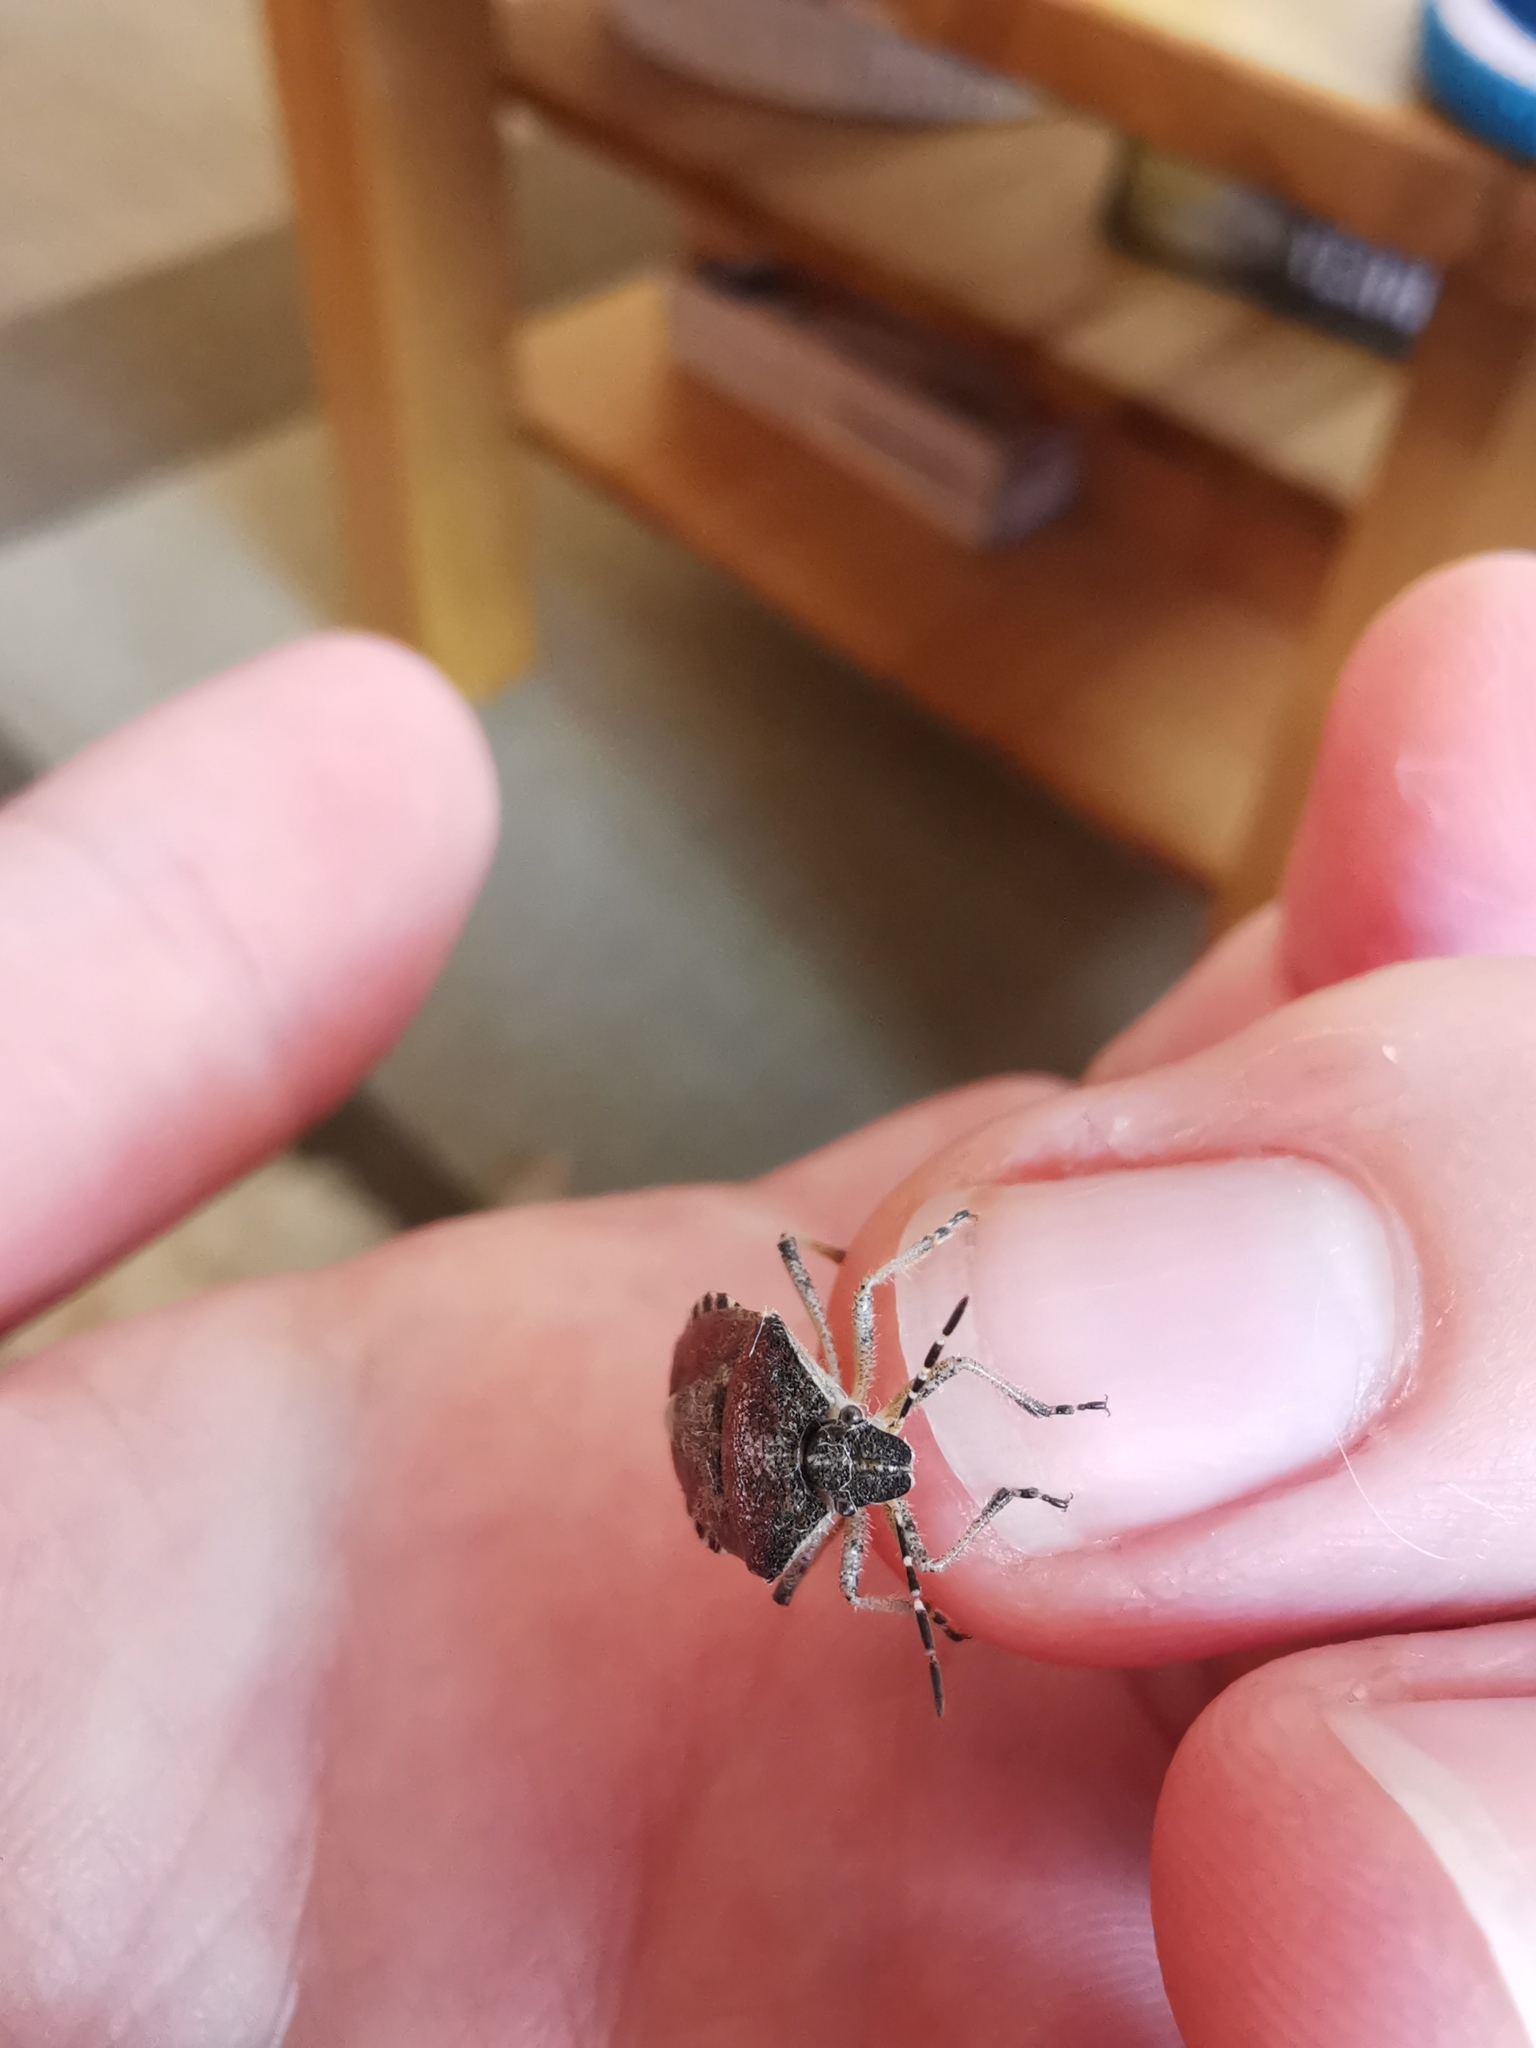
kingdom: Animalia
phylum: Arthropoda
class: Insecta
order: Hemiptera
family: Pentatomidae
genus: Dolycoris
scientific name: Dolycoris baccarum
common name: Sloe bug
